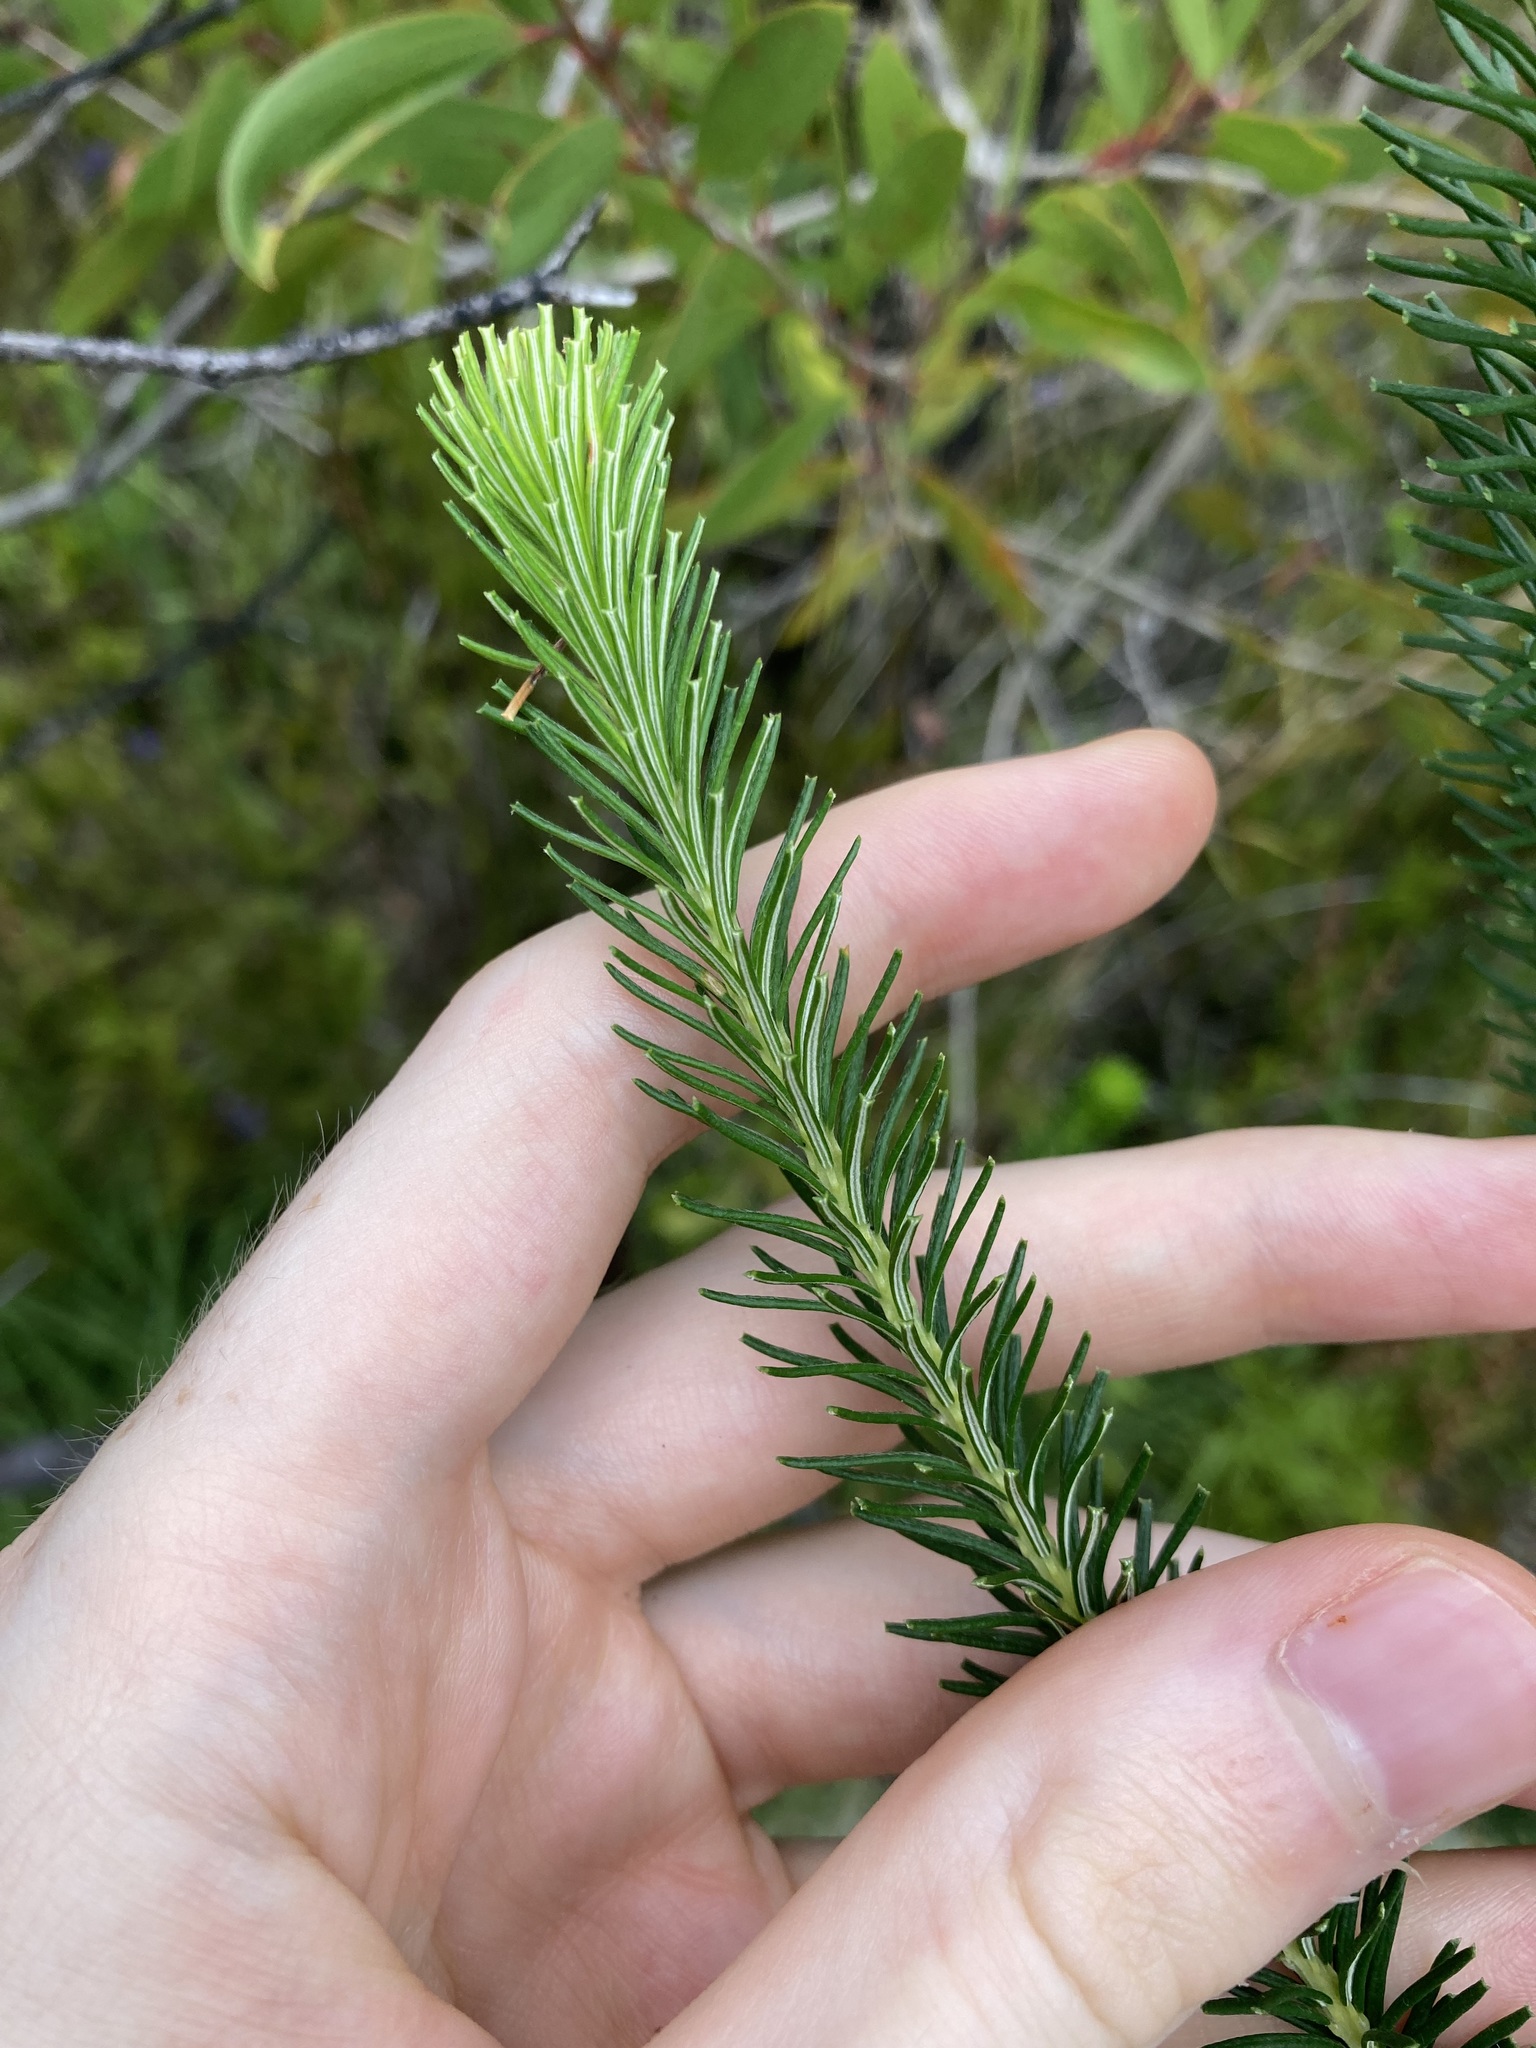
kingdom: Plantae
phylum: Tracheophyta
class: Magnoliopsida
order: Proteales
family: Proteaceae
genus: Banksia
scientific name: Banksia ericifolia
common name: Heath-leaf banksia
